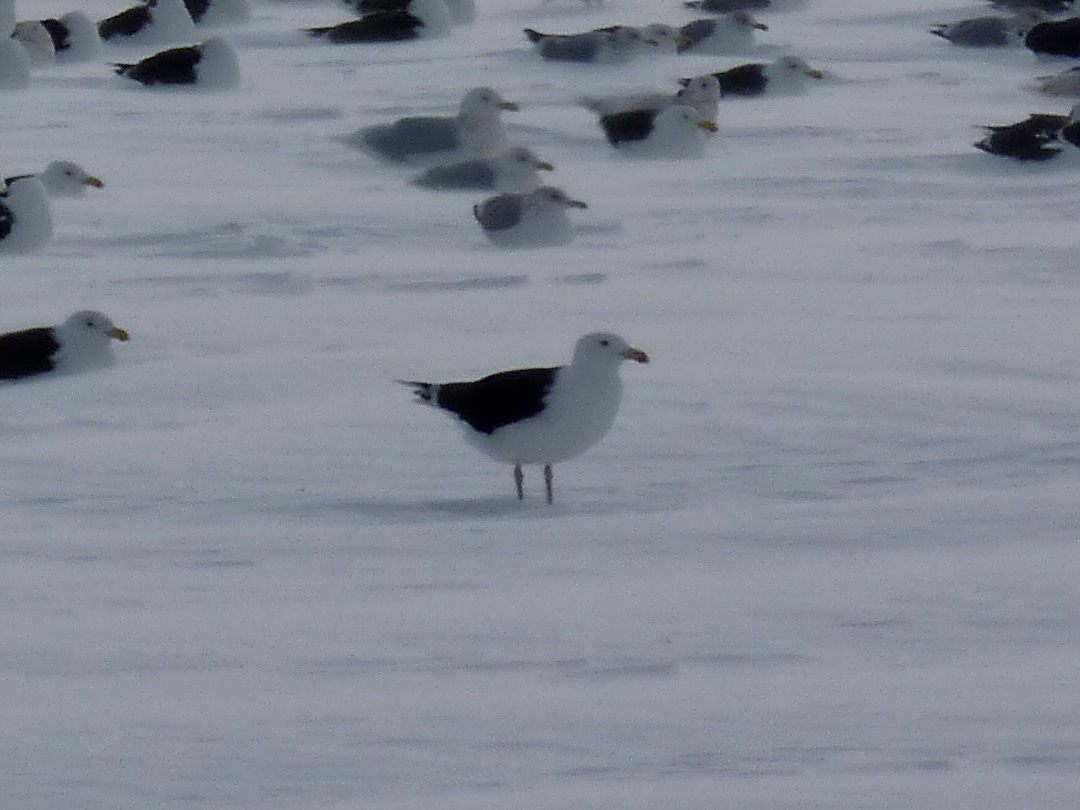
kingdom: Animalia
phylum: Chordata
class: Aves
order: Charadriiformes
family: Laridae
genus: Larus
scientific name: Larus marinus
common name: Great black-backed gull
